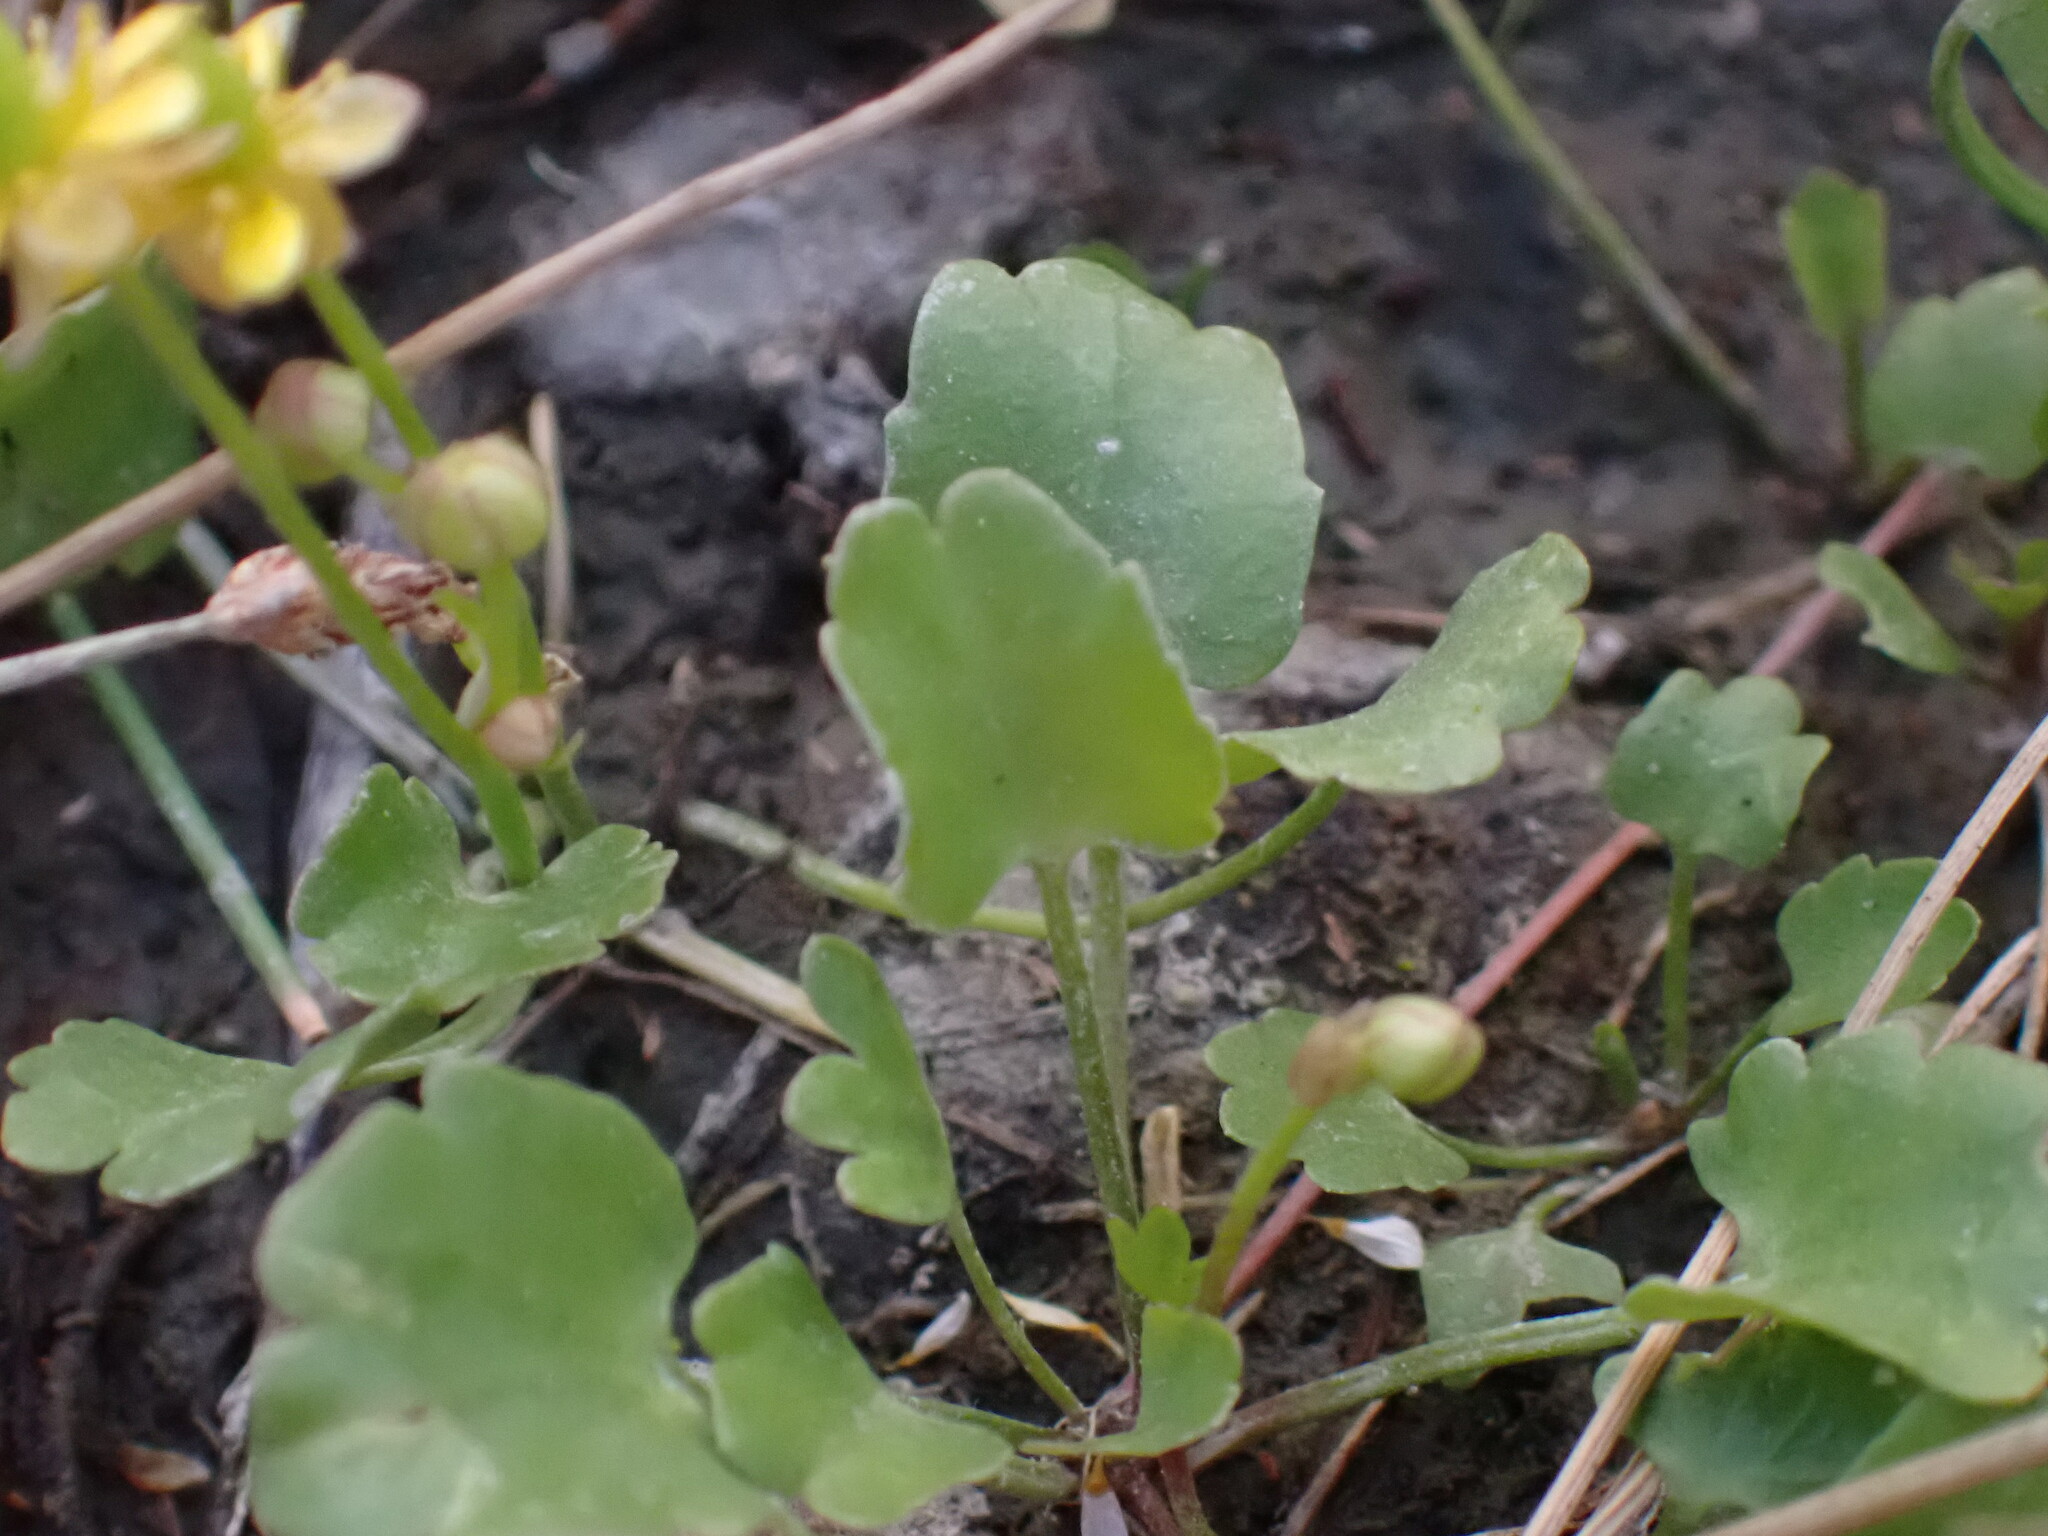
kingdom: Plantae
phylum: Tracheophyta
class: Magnoliopsida
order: Ranunculales
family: Ranunculaceae
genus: Halerpestes
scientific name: Halerpestes cymbalaria
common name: Seaside crowfoot
